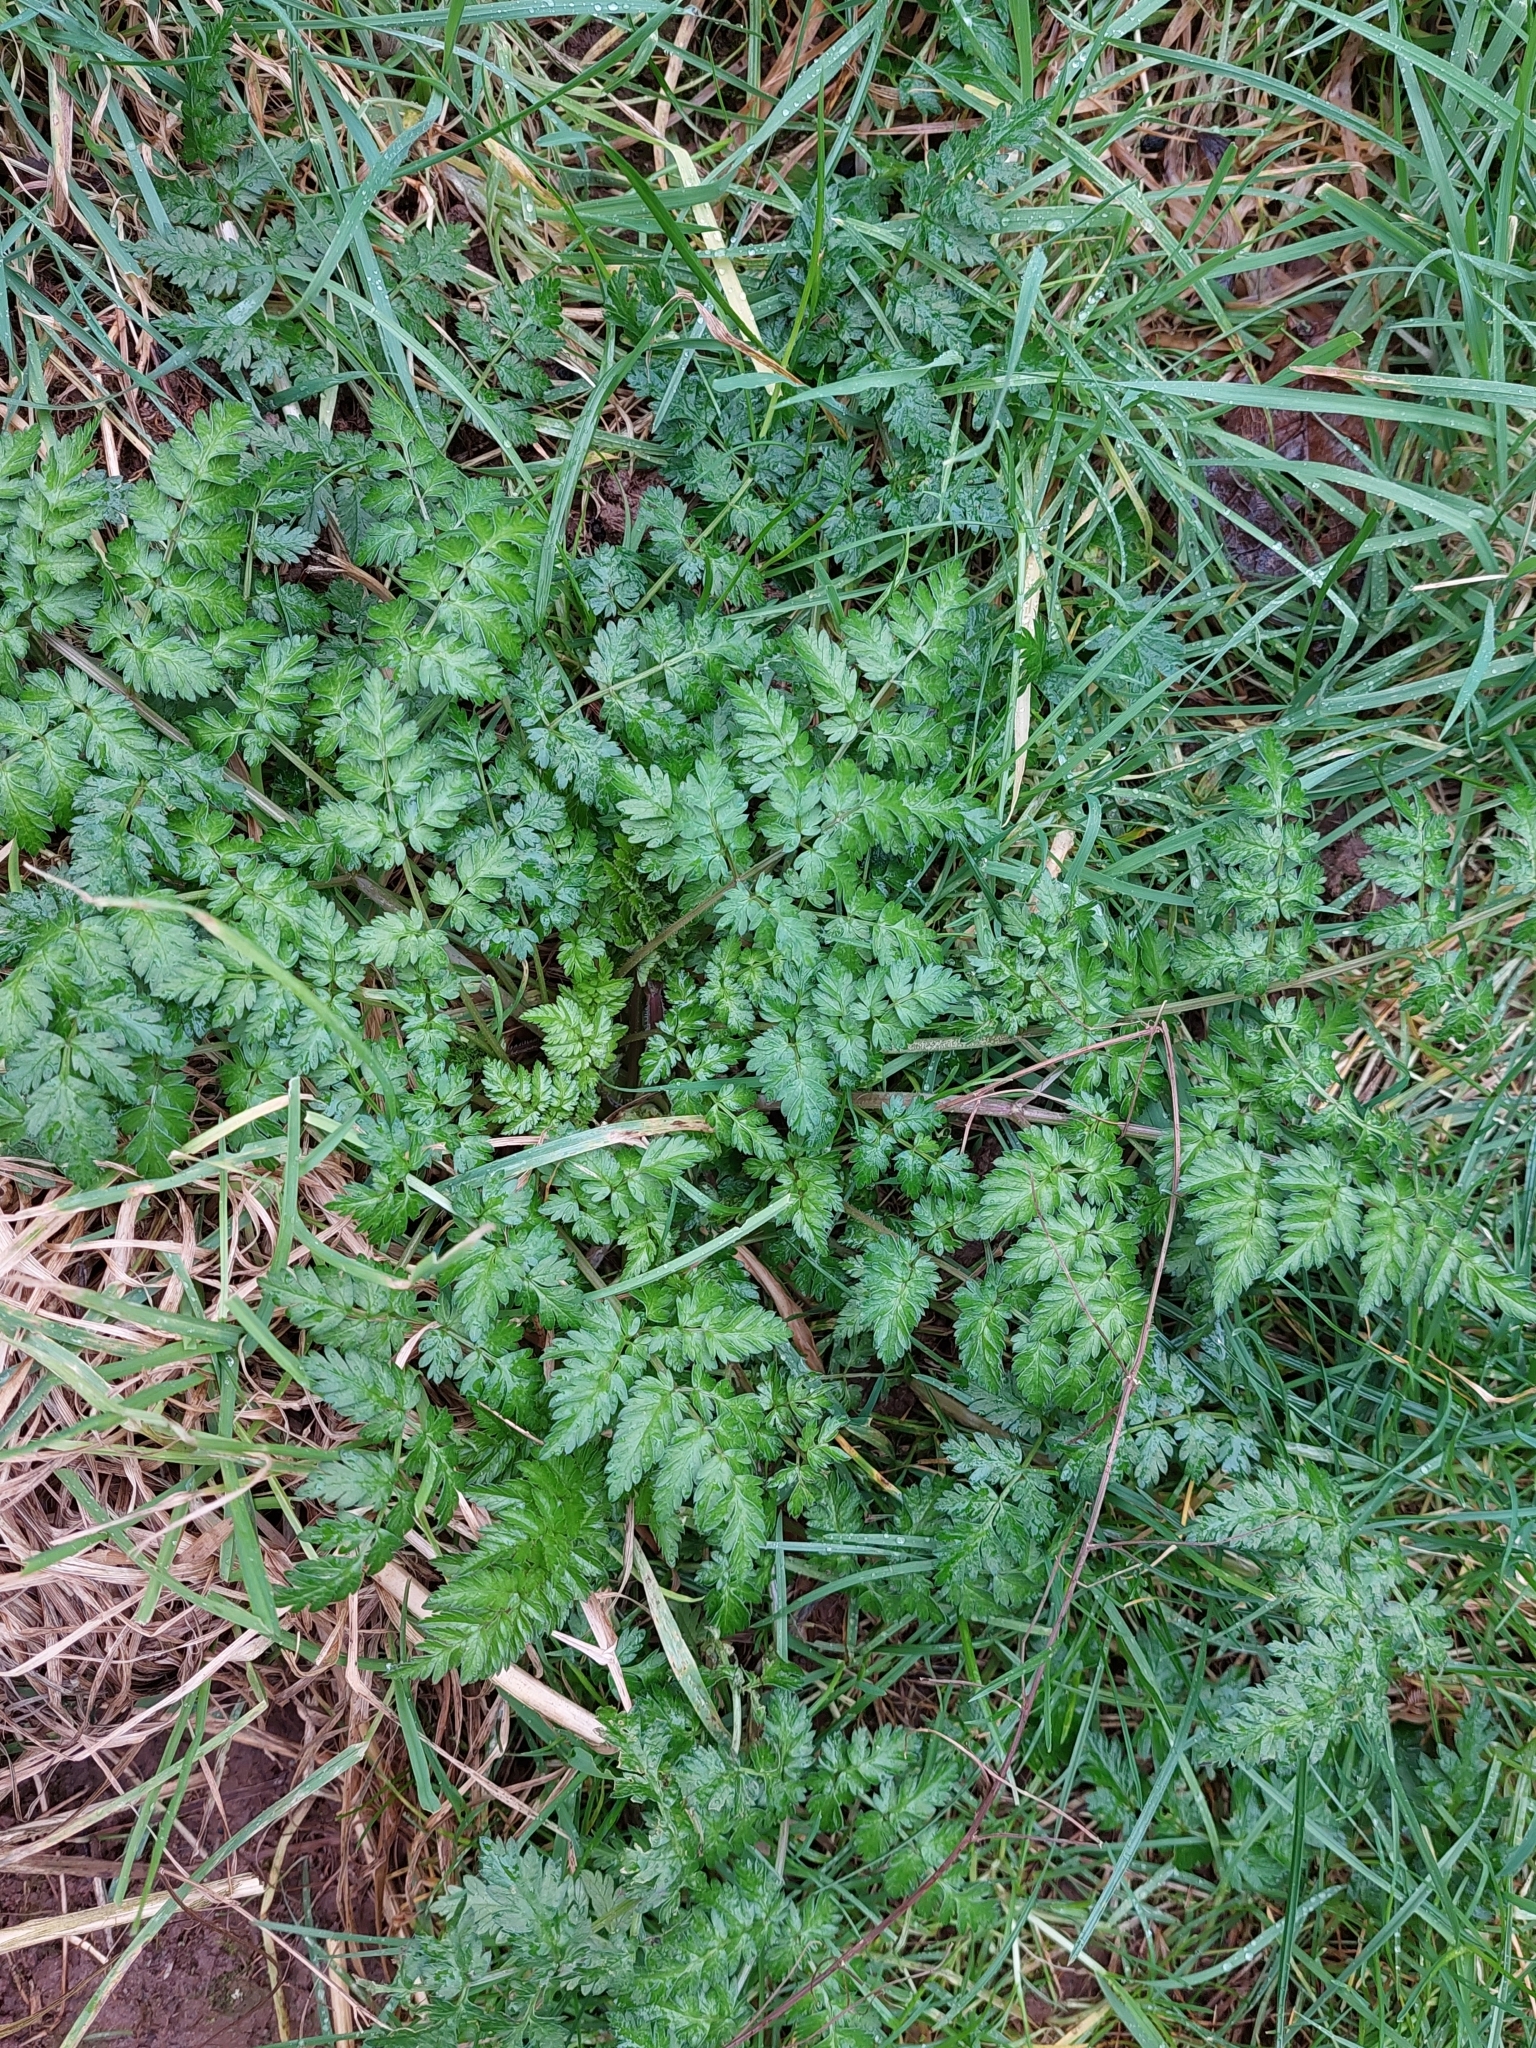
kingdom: Plantae
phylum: Tracheophyta
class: Magnoliopsida
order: Apiales
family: Apiaceae
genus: Anthriscus
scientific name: Anthriscus sylvestris
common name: Cow parsley
